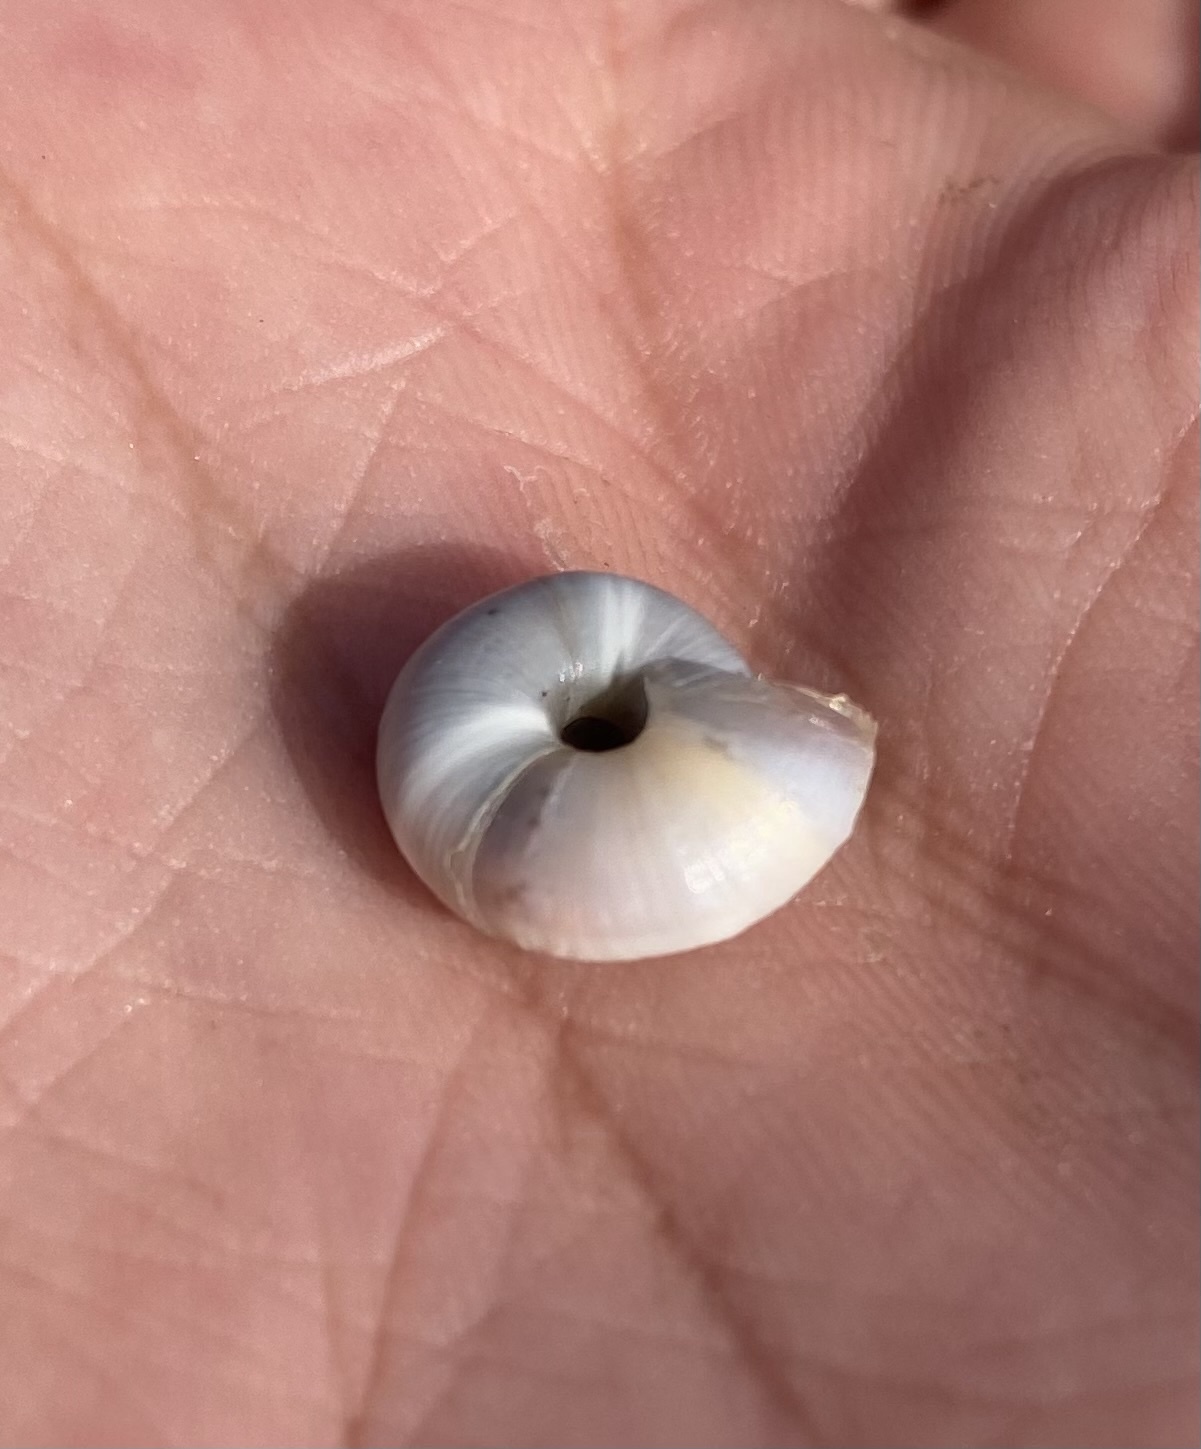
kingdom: Animalia
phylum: Mollusca
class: Gastropoda
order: Stylommatophora
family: Hygromiidae
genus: Anoplitella
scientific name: Anoplitella schaposchnikovi
